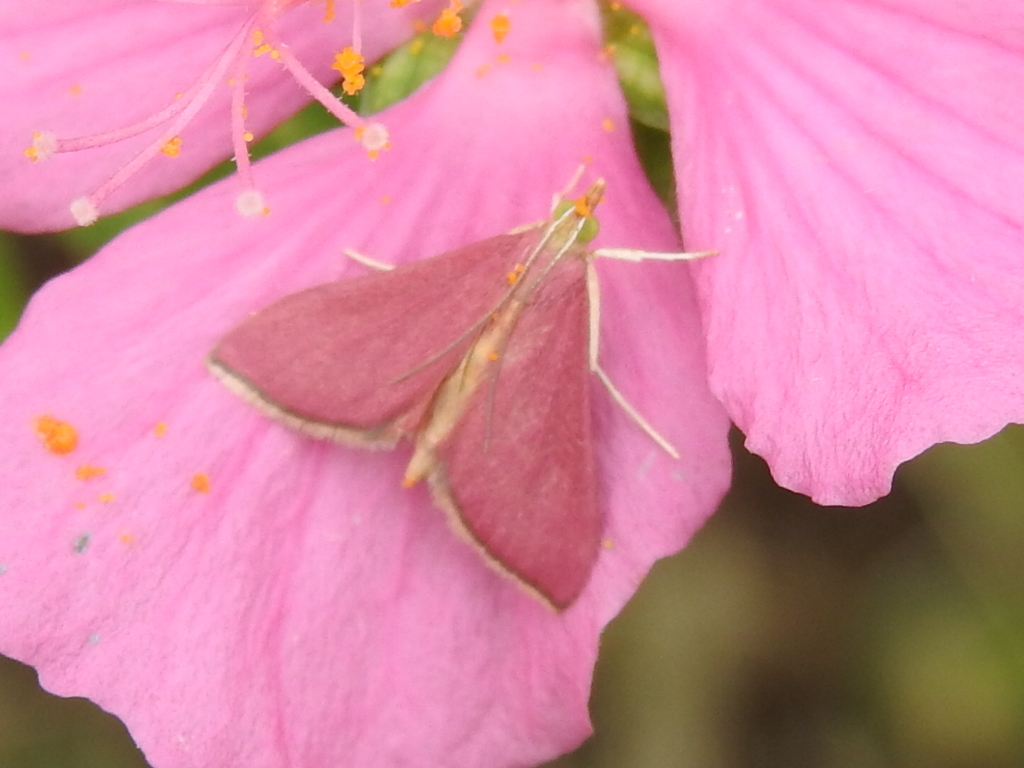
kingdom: Animalia
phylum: Arthropoda
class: Insecta
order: Lepidoptera
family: Crambidae
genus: Pyrausta
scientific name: Pyrausta inornatalis
